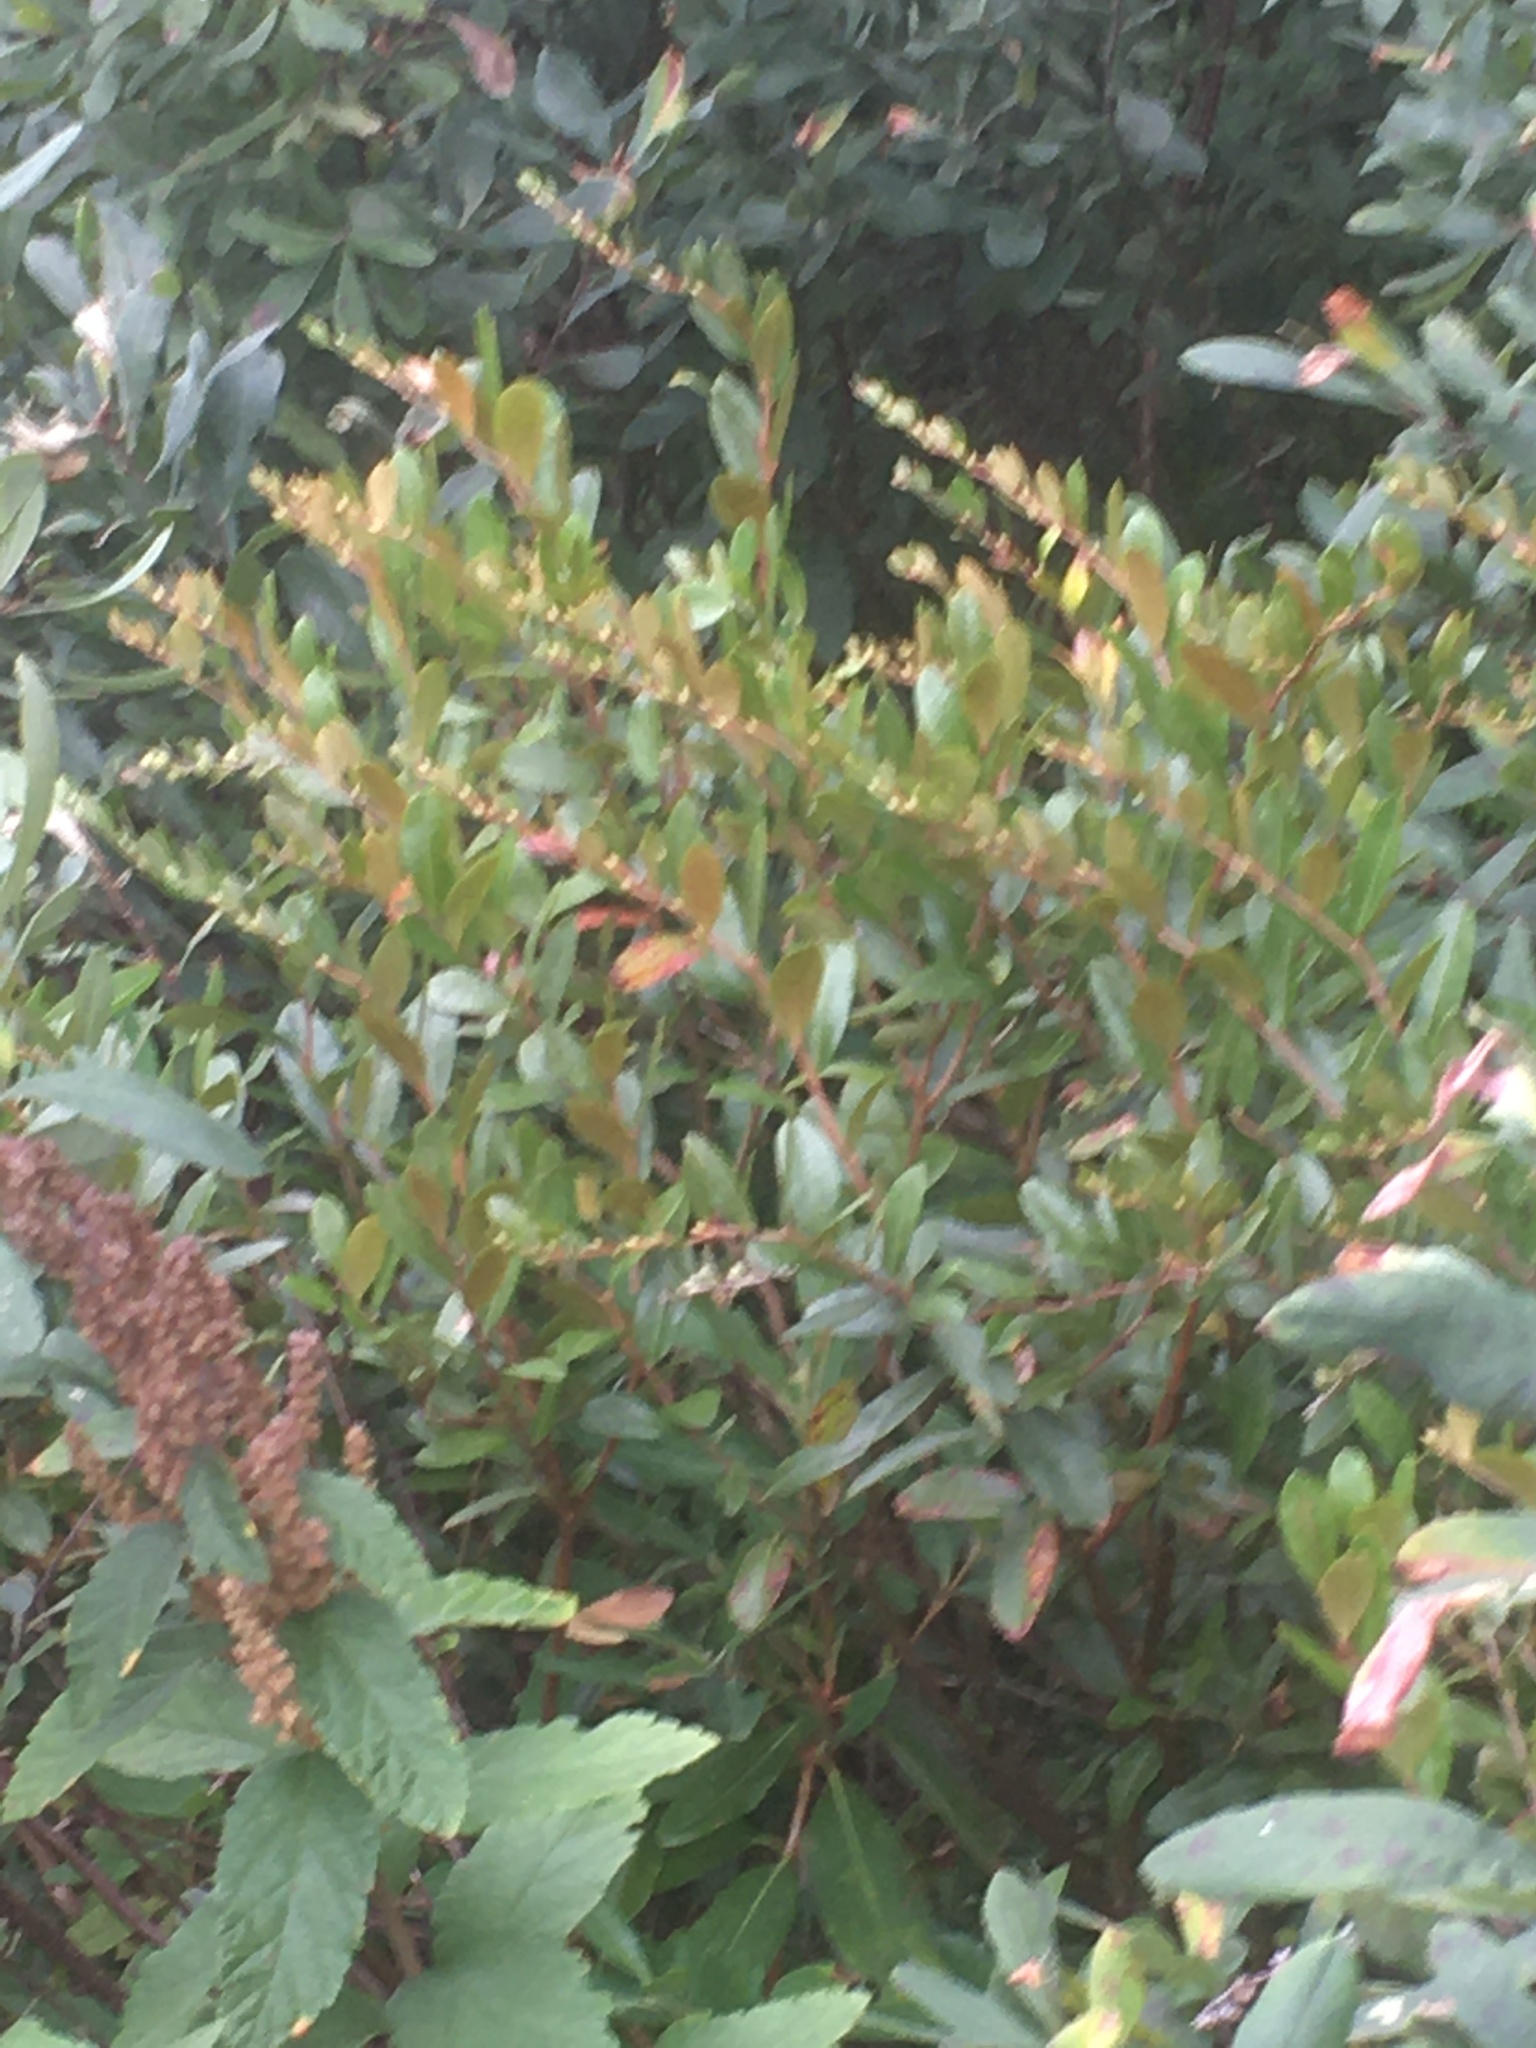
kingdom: Plantae
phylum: Tracheophyta
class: Magnoliopsida
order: Rosales
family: Rosaceae
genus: Spiraea
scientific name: Spiraea tomentosa
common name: Hardhack
